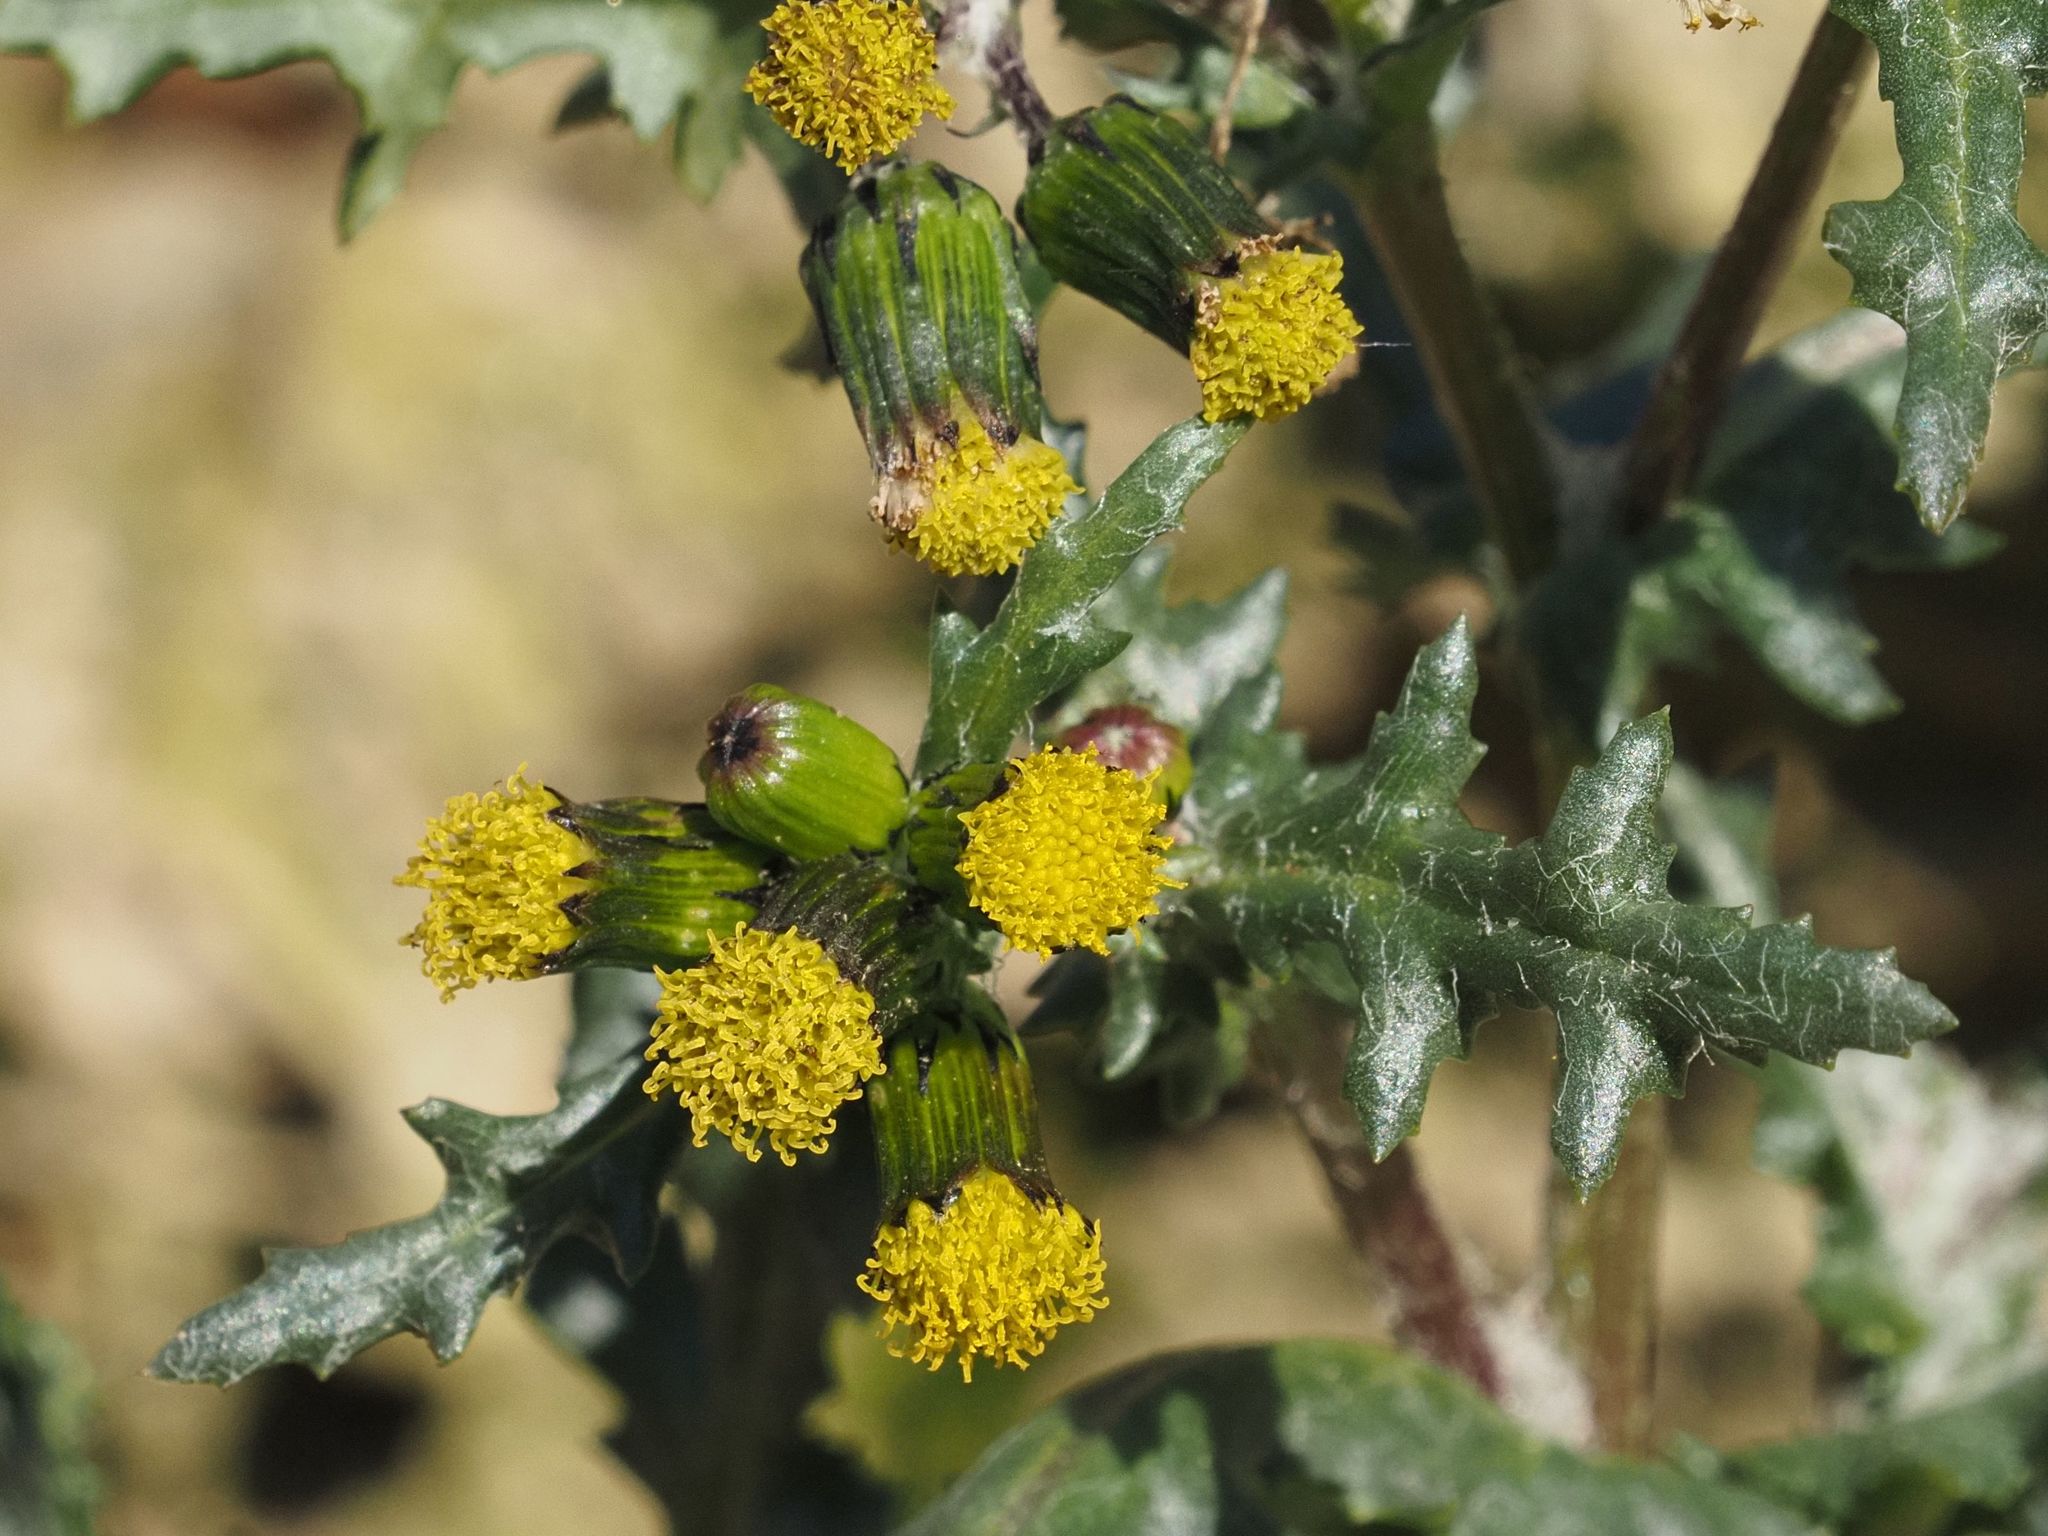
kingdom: Plantae
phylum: Tracheophyta
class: Magnoliopsida
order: Asterales
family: Asteraceae
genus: Senecio
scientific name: Senecio vulgaris
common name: Old-man-in-the-spring
